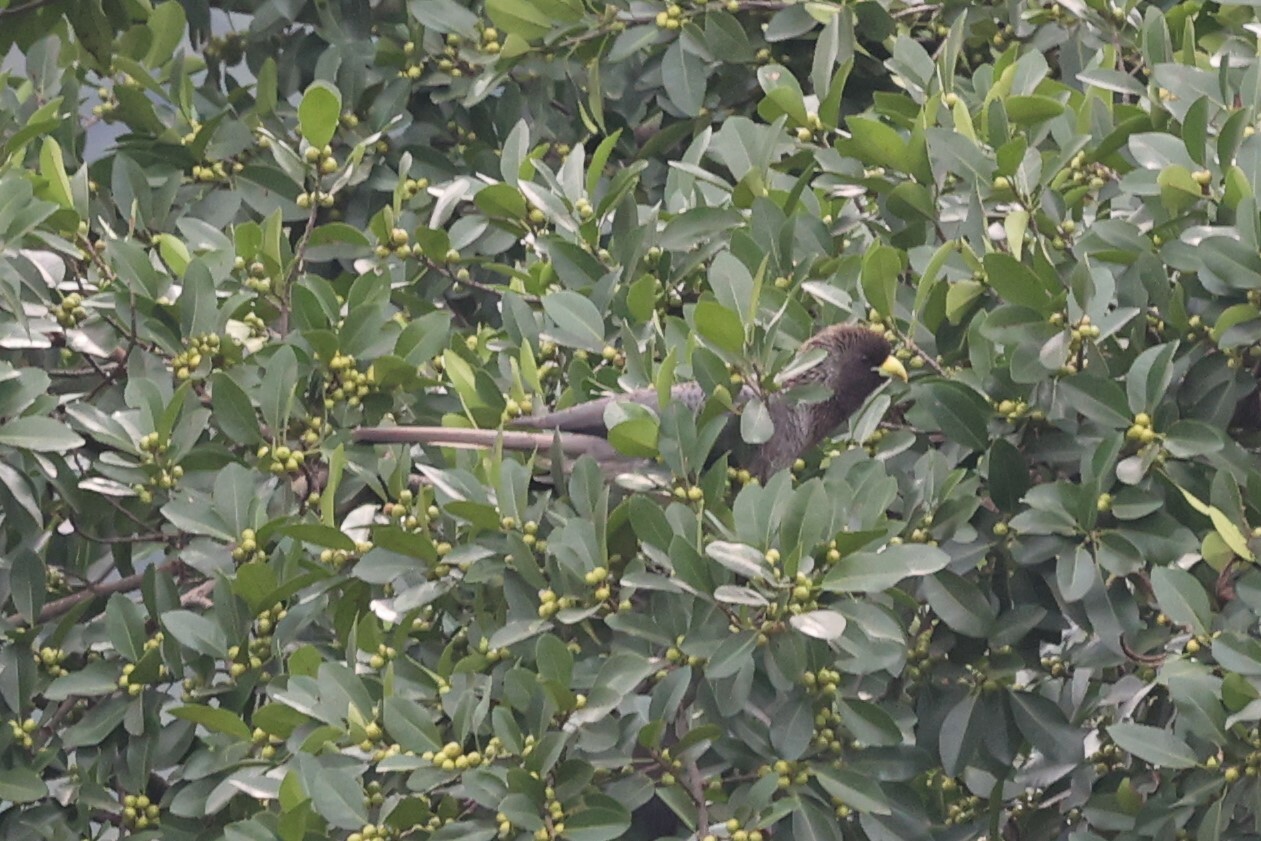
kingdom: Animalia
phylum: Chordata
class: Aves
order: Musophagiformes
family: Musophagidae
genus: Crinifer
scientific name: Crinifer zonurus
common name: Eastern plantain-eater
